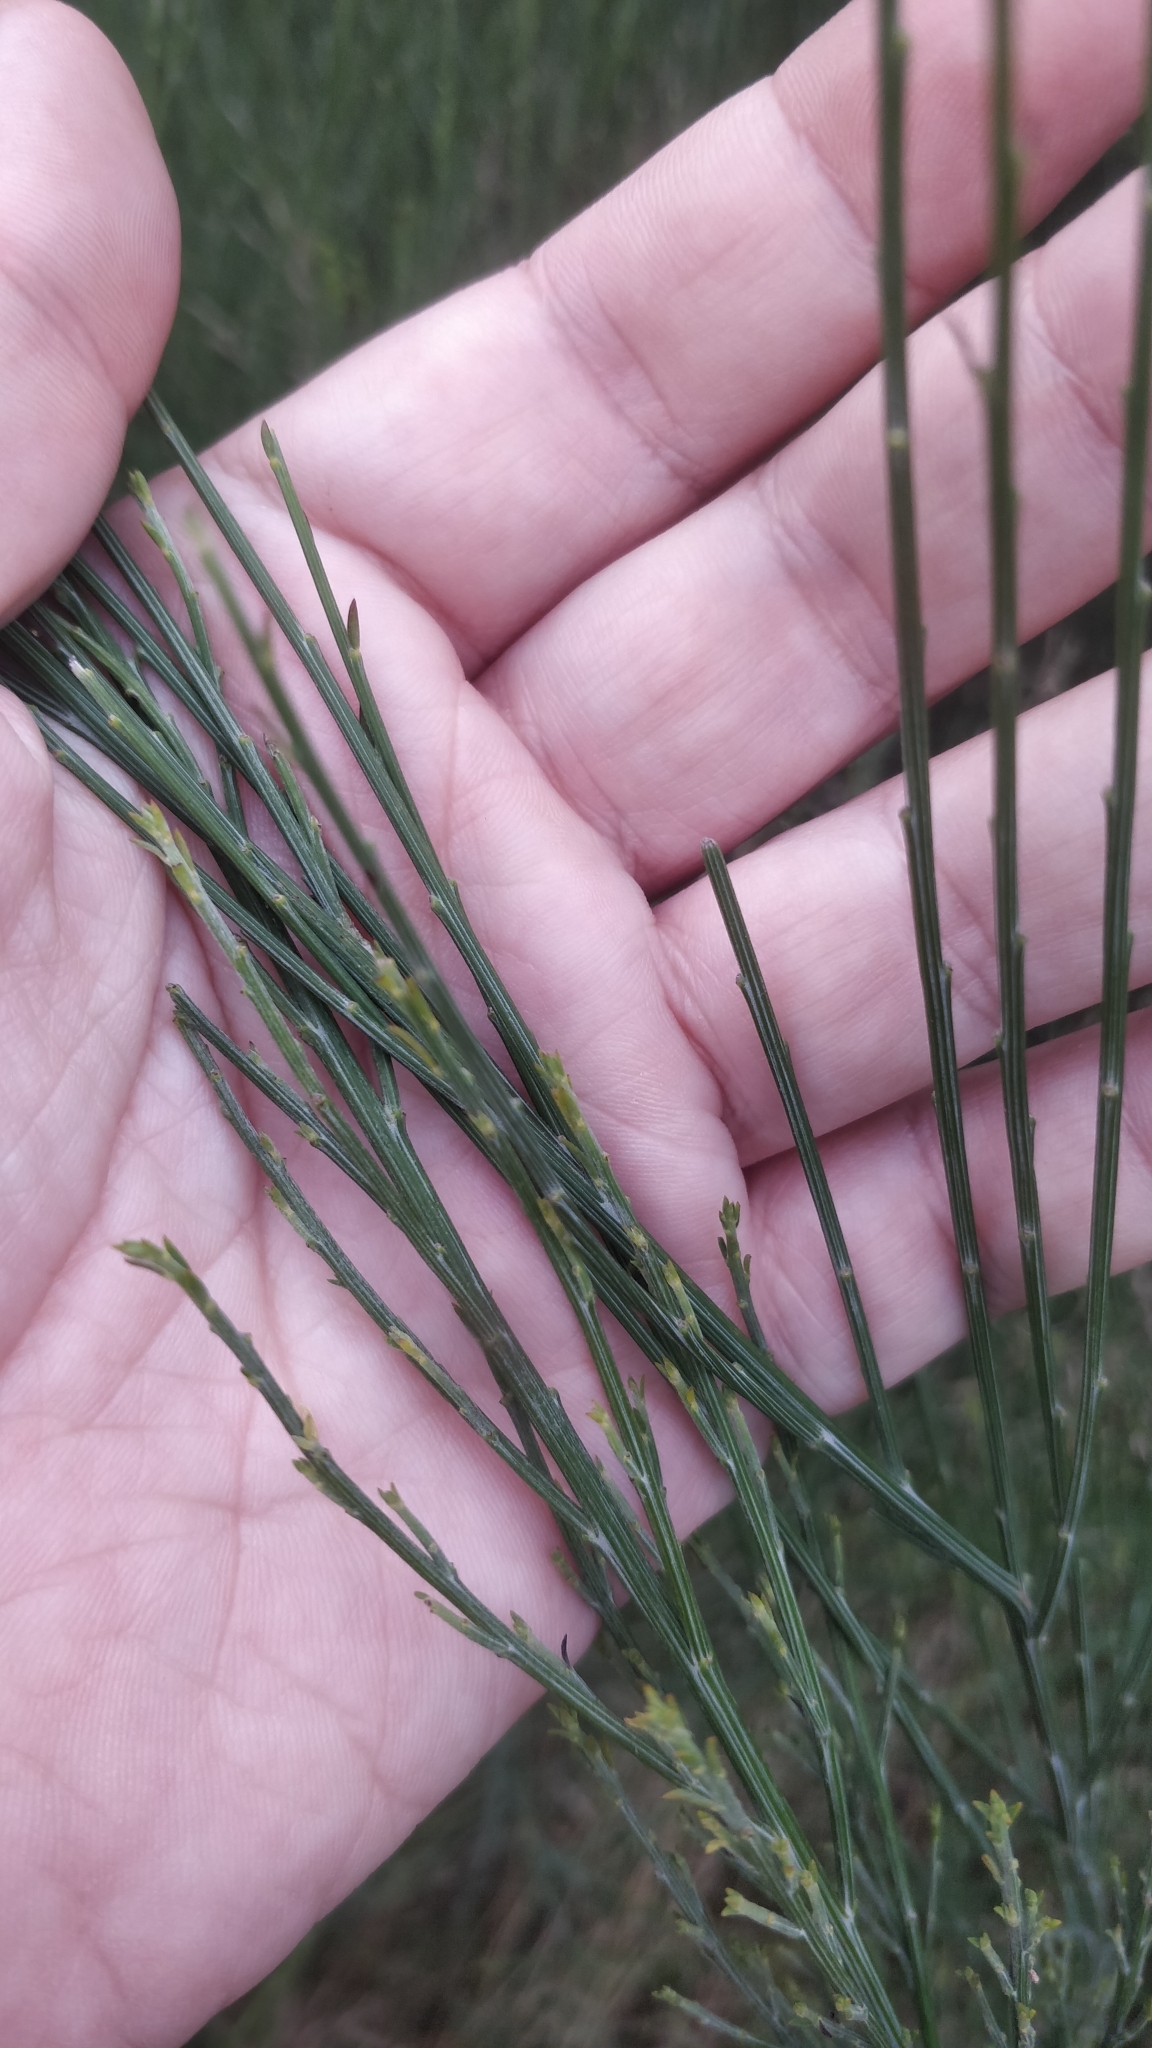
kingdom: Plantae
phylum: Tracheophyta
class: Magnoliopsida
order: Fabales
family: Fabaceae
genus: Cytisus
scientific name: Cytisus scoparius
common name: Scotch broom
